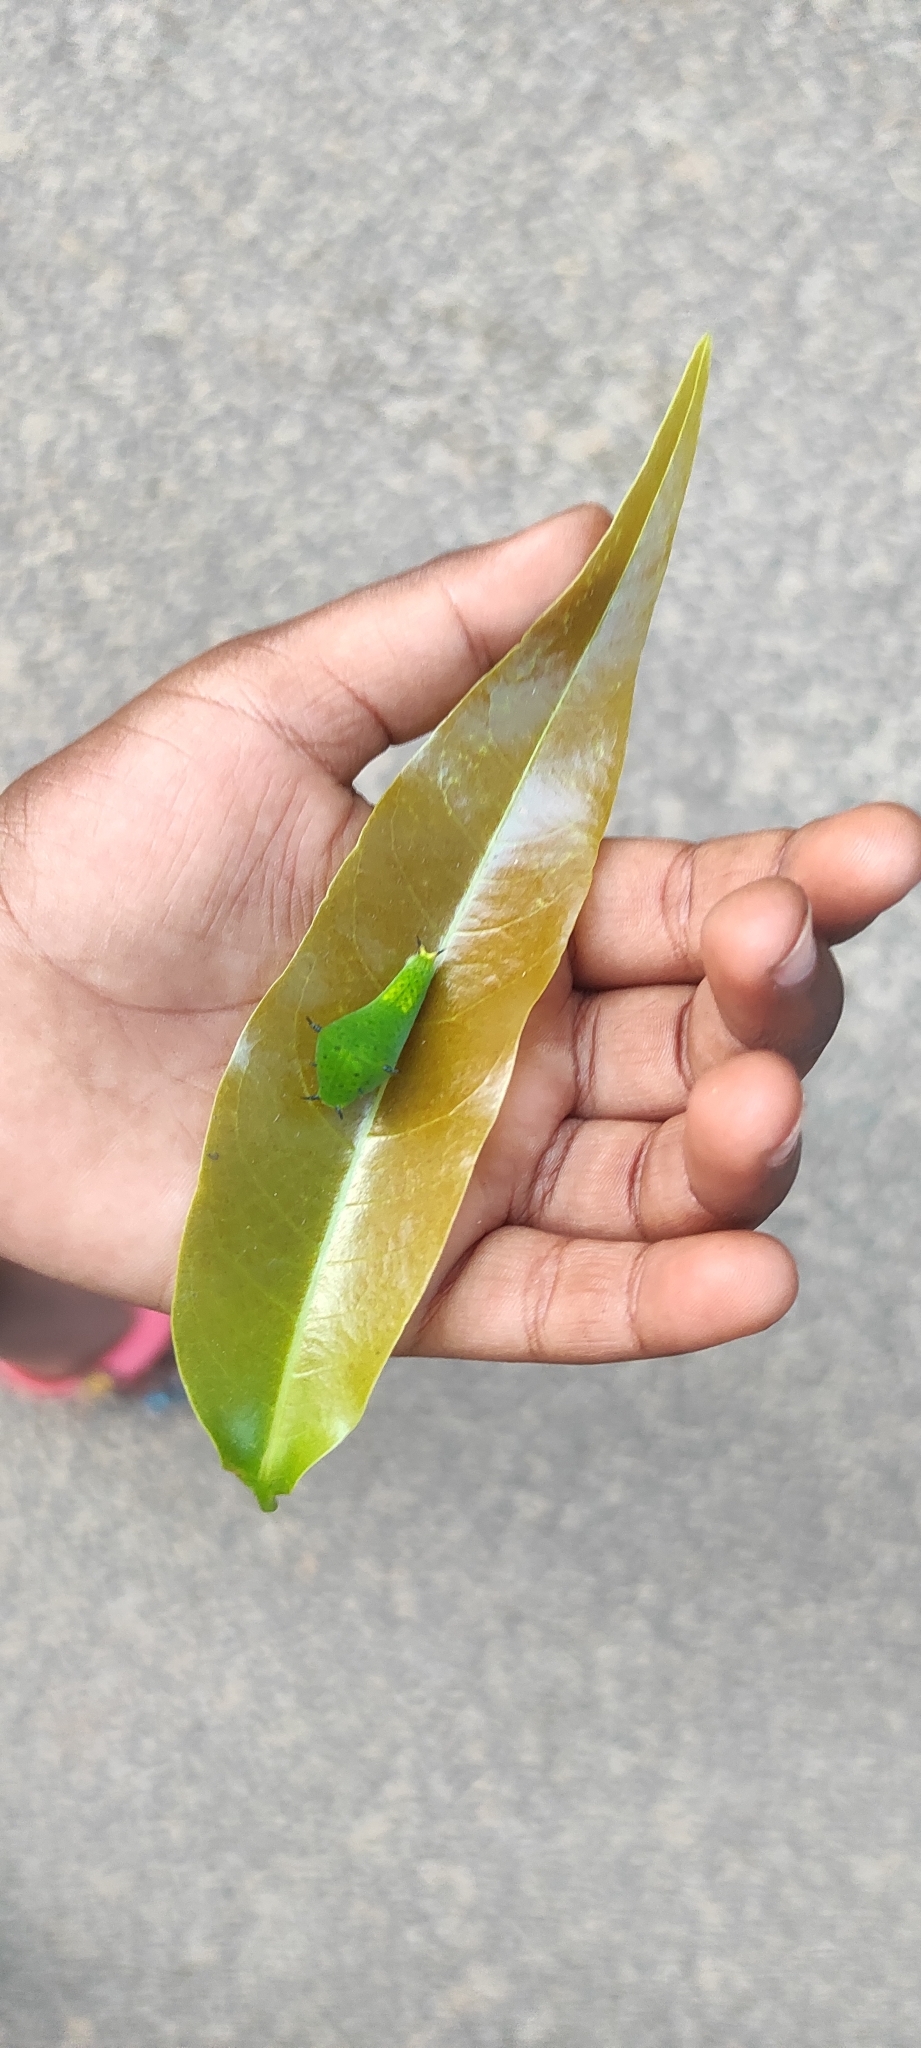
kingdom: Animalia
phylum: Arthropoda
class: Insecta
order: Lepidoptera
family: Papilionidae
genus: Graphium
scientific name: Graphium agamemnon
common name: Tailed jay
